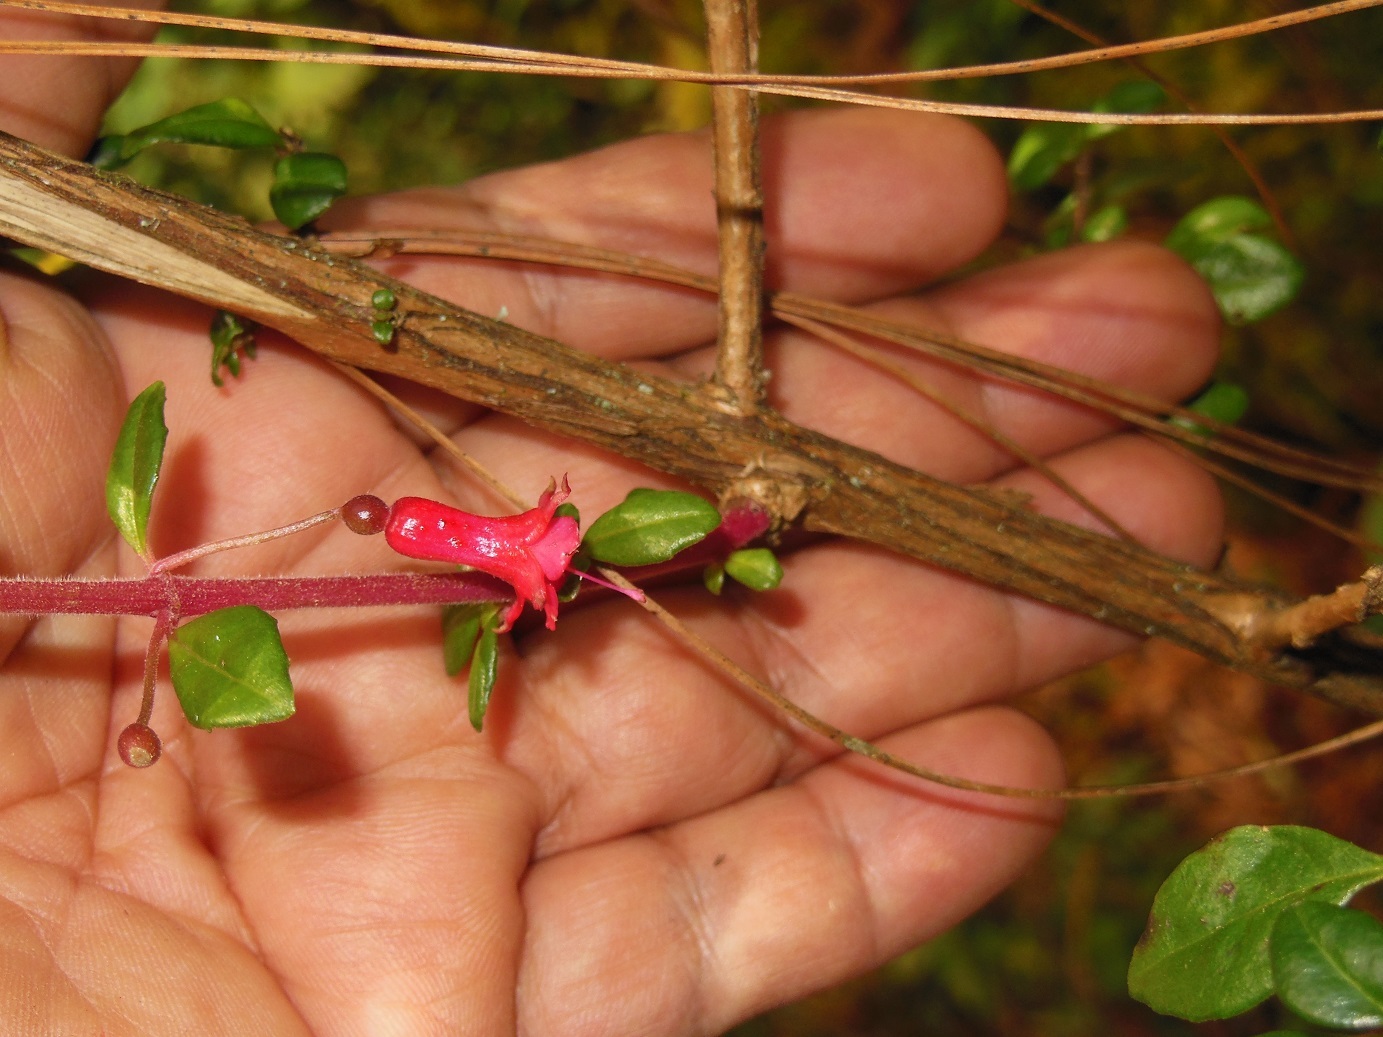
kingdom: Plantae
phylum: Tracheophyta
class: Magnoliopsida
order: Myrtales
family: Onagraceae
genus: Fuchsia
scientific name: Fuchsia microphylla
